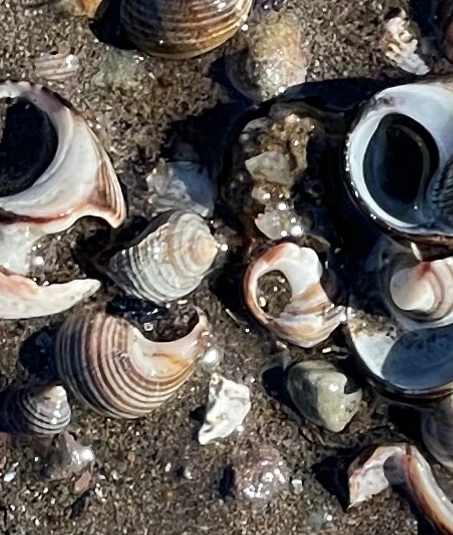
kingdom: Animalia
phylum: Mollusca
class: Gastropoda
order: Littorinimorpha
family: Littorinidae
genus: Littorina
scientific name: Littorina littorea
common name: Common periwinkle
